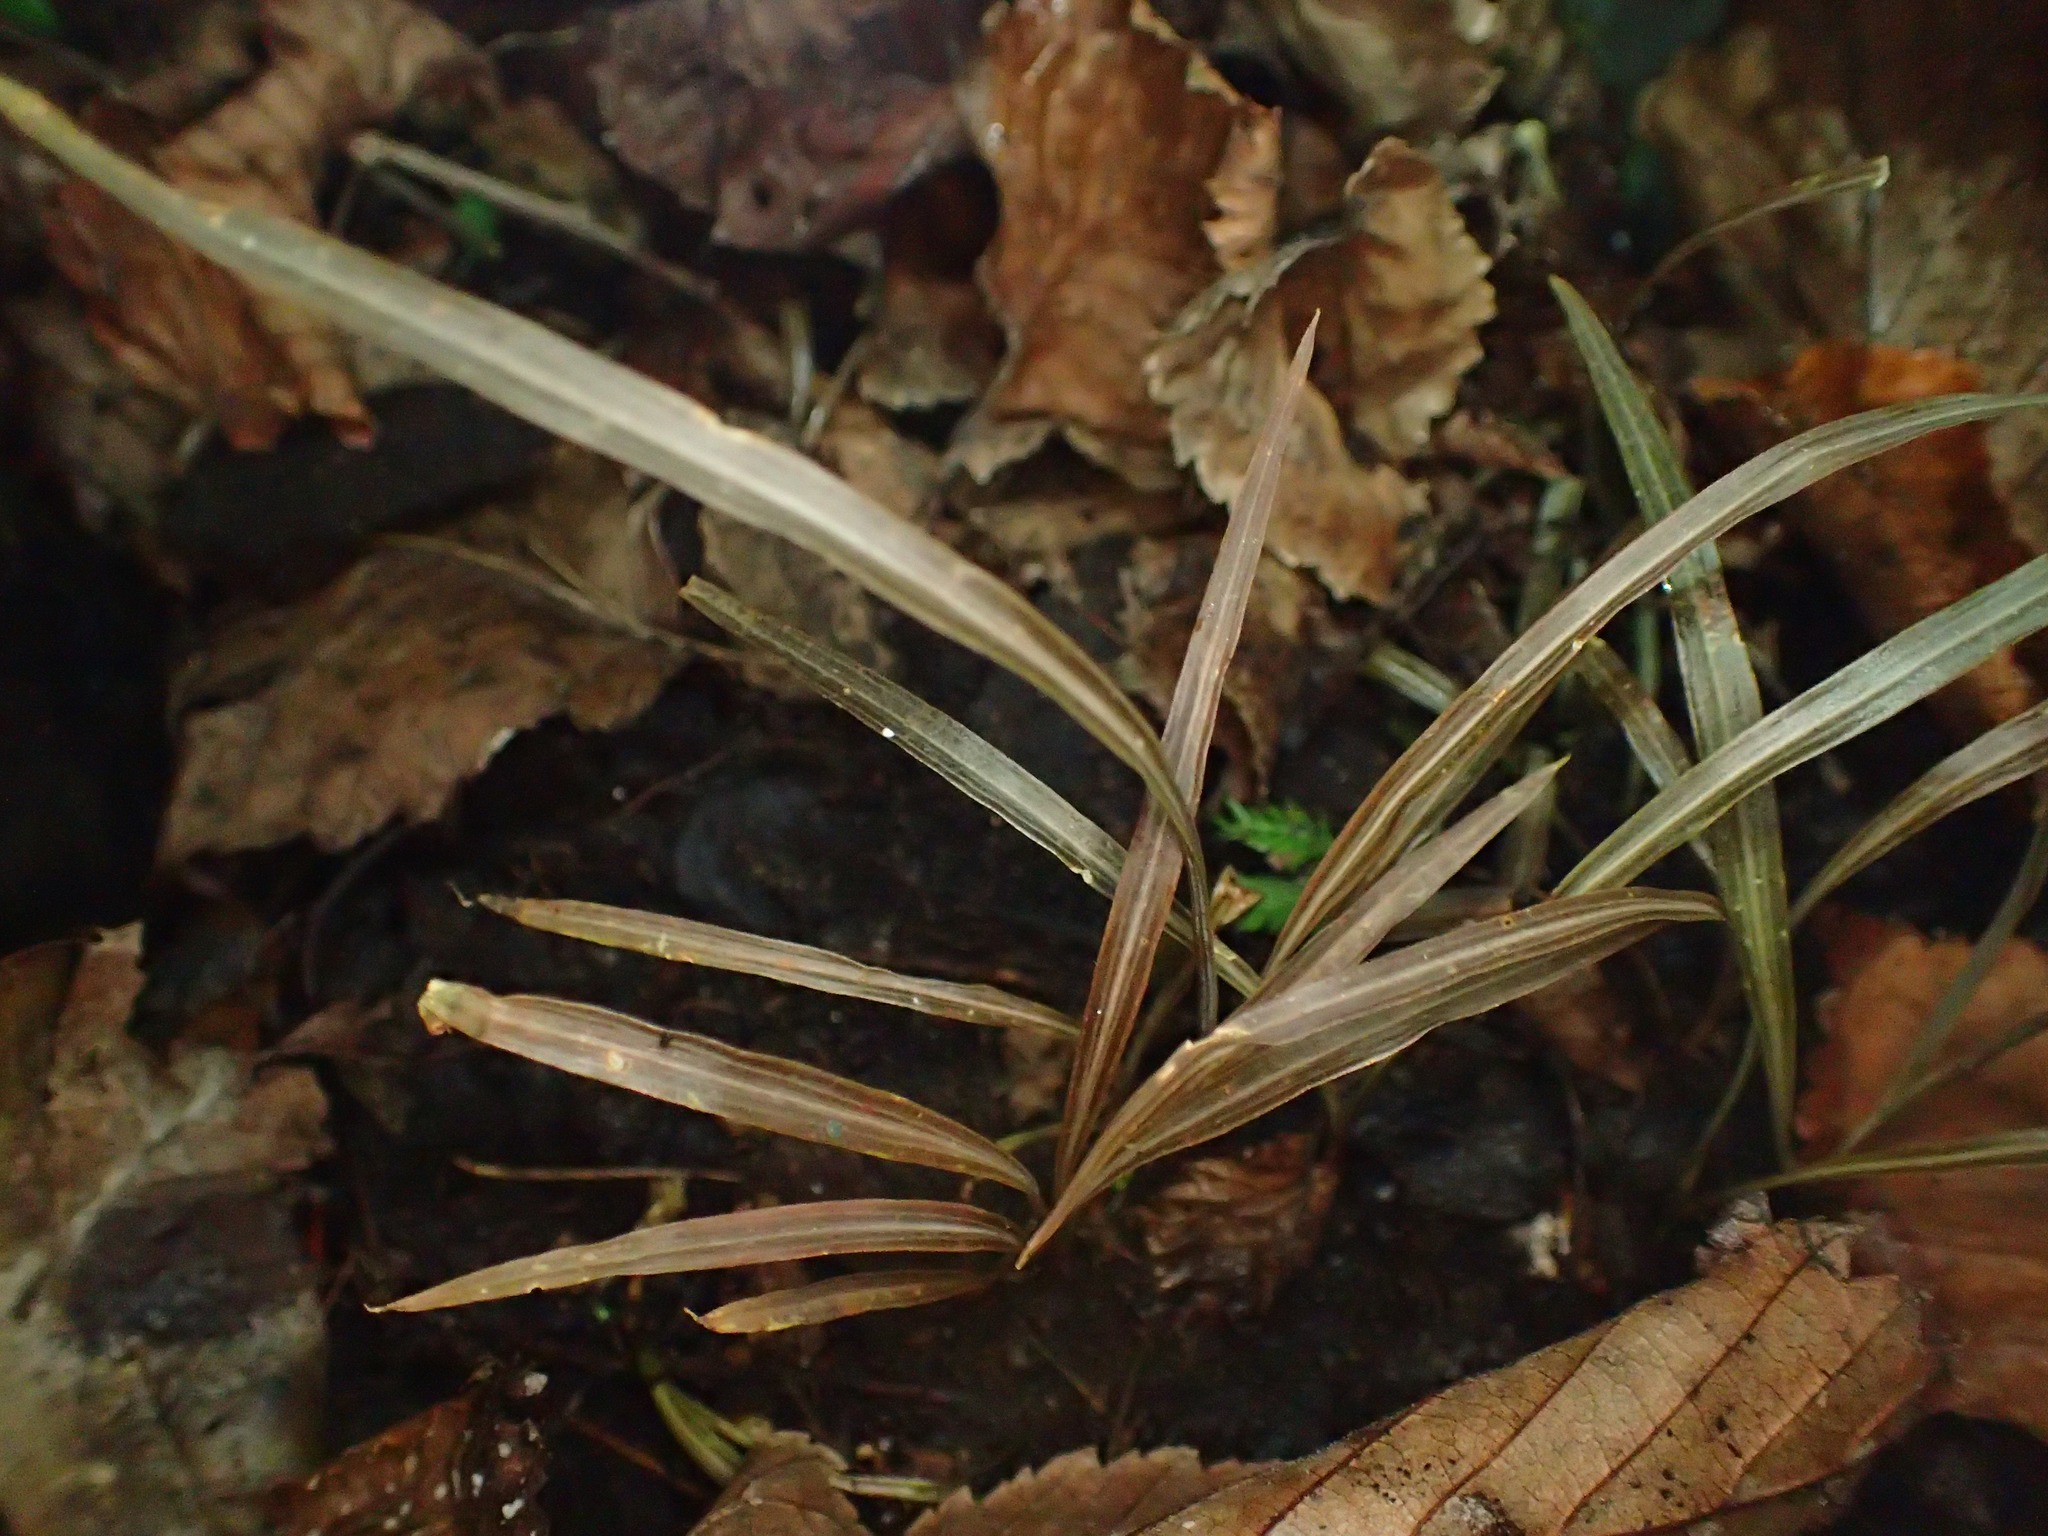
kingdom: Plantae
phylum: Tracheophyta
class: Liliopsida
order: Asparagales
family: Asparagaceae
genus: Cordyline
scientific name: Cordyline australis
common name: Cabbage-palm
